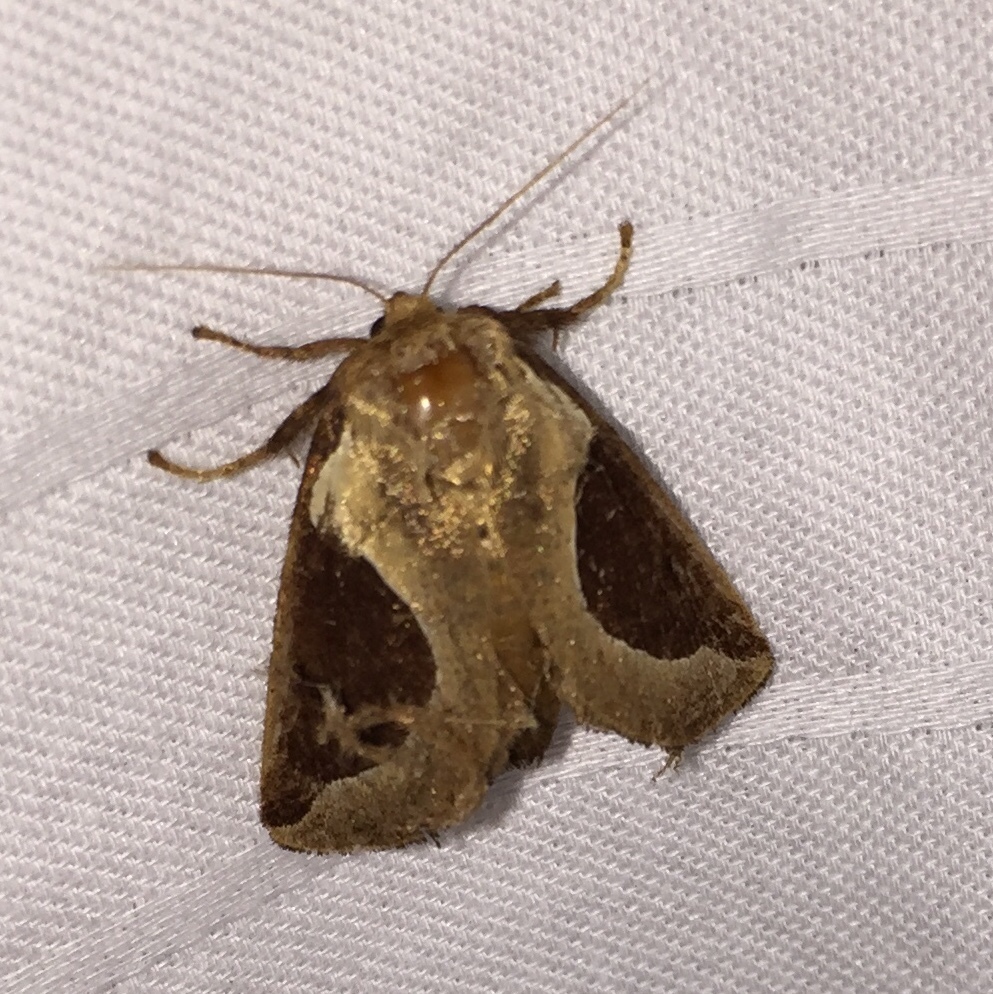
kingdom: Animalia
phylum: Arthropoda
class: Insecta
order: Lepidoptera
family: Limacodidae
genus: Prolimacodes
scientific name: Prolimacodes badia
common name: Skiff moth
